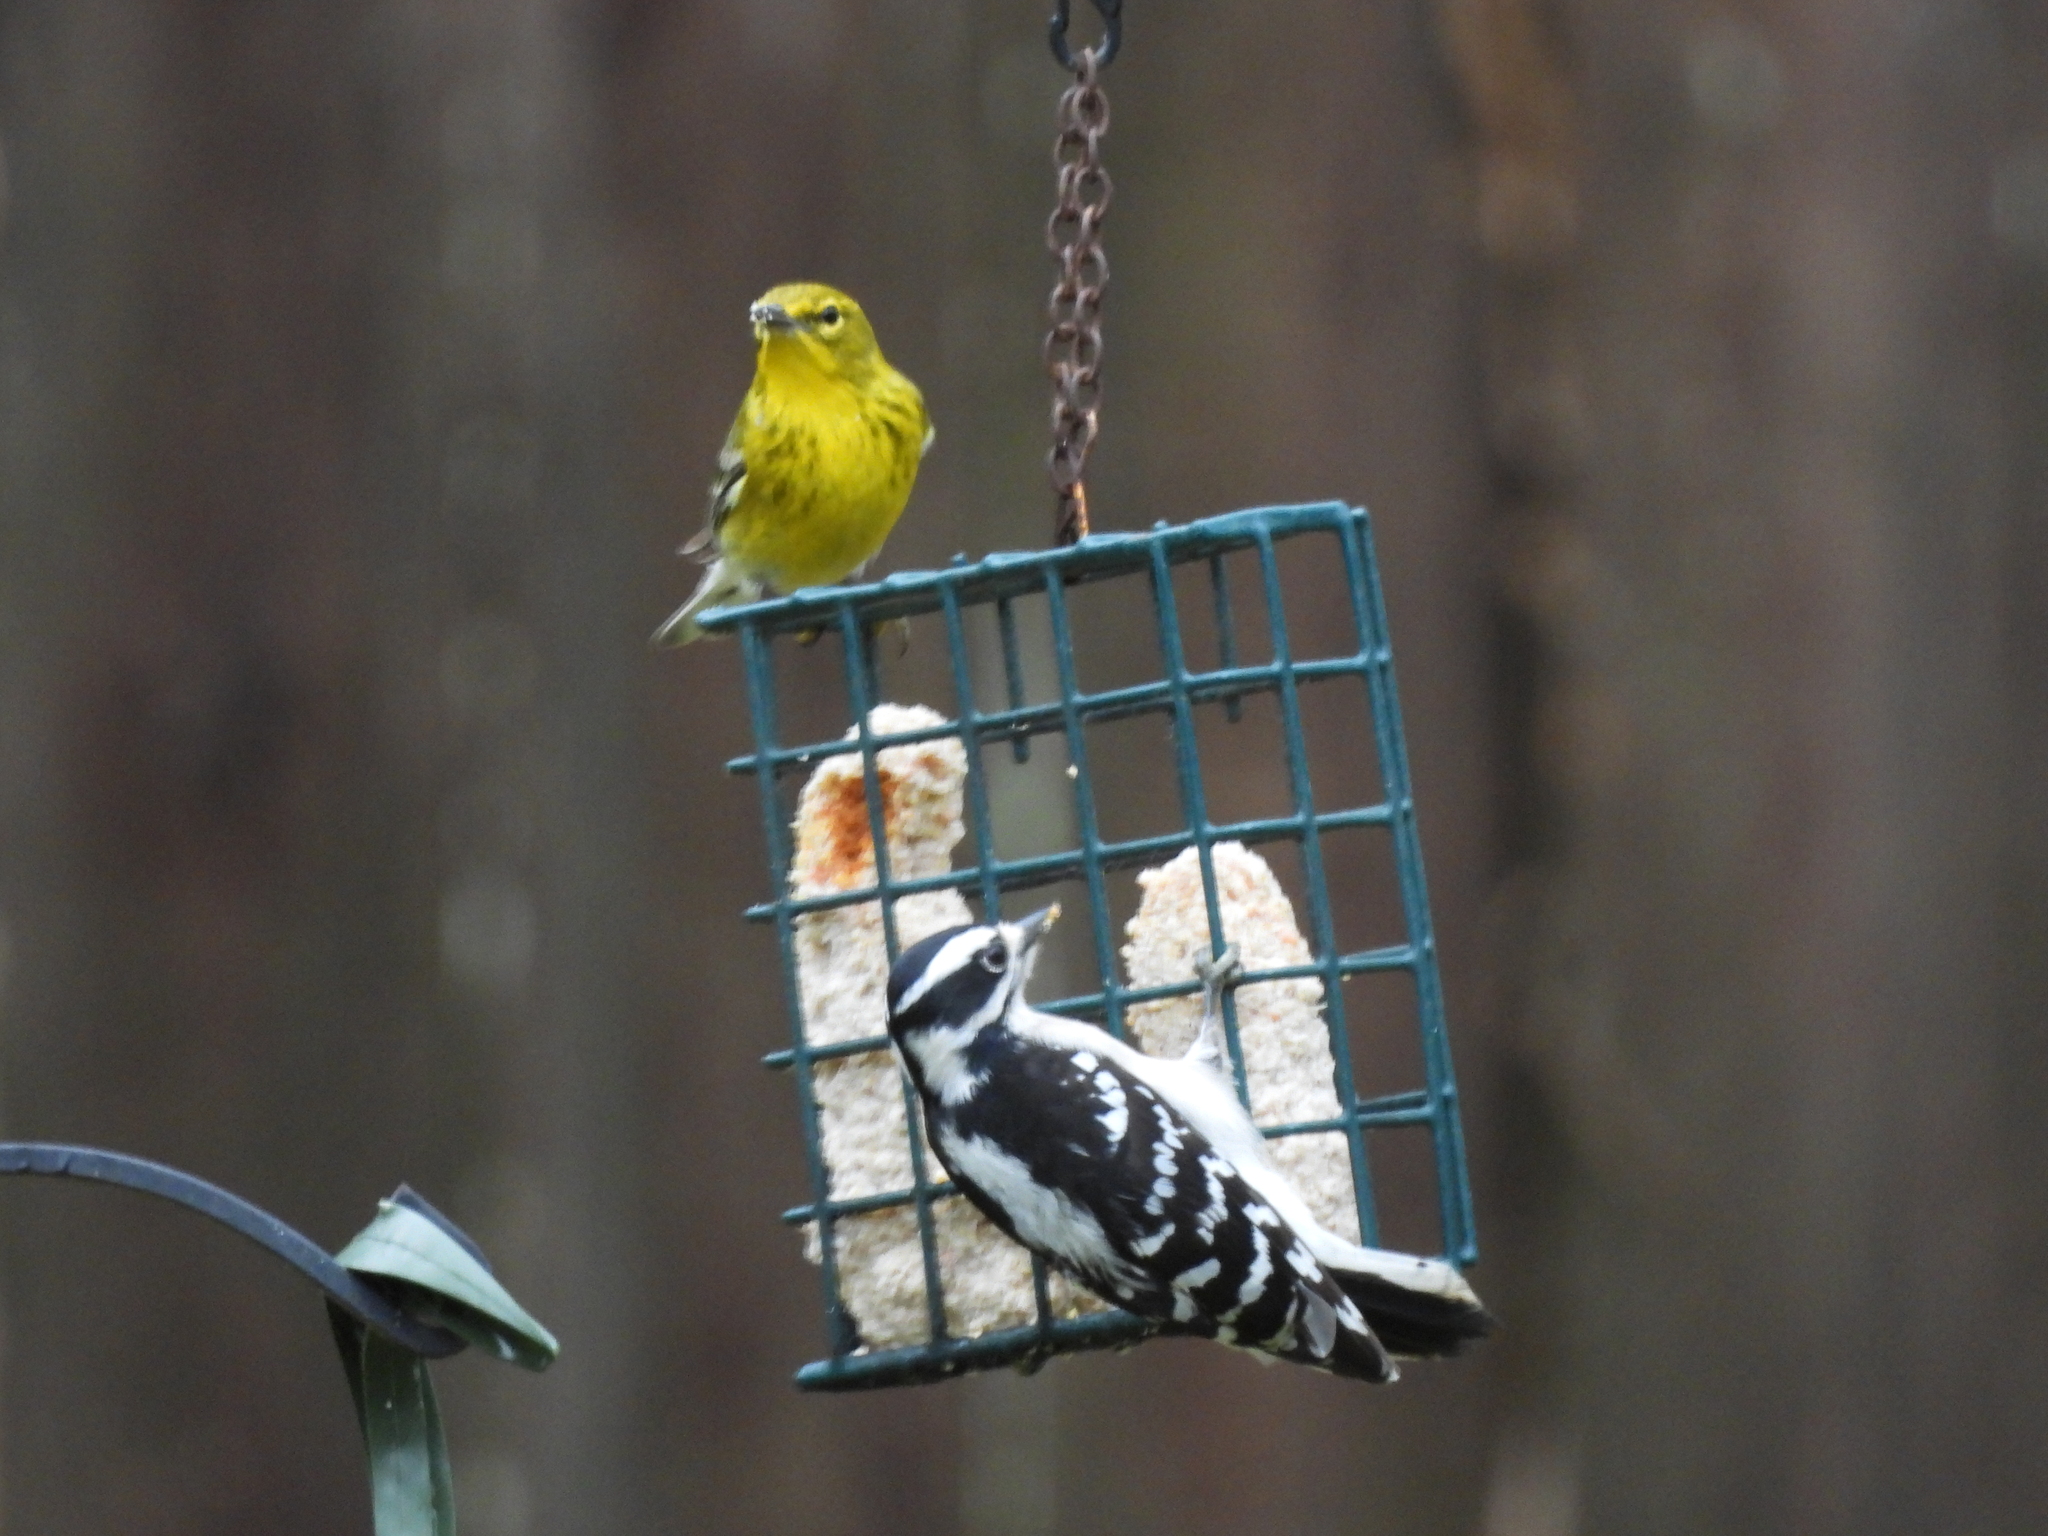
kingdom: Animalia
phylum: Chordata
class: Aves
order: Passeriformes
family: Parulidae
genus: Setophaga
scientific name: Setophaga pinus
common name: Pine warbler
